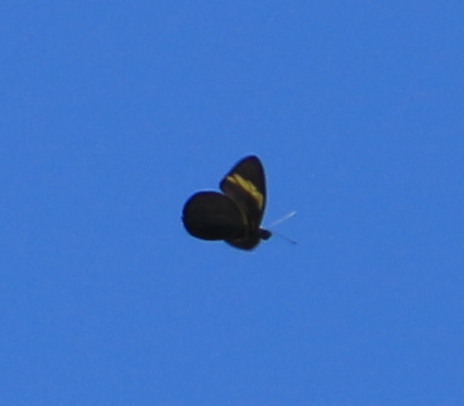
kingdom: Animalia
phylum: Arthropoda
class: Insecta
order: Lepidoptera
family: Pieridae
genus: Pereute
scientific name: Pereute charops
